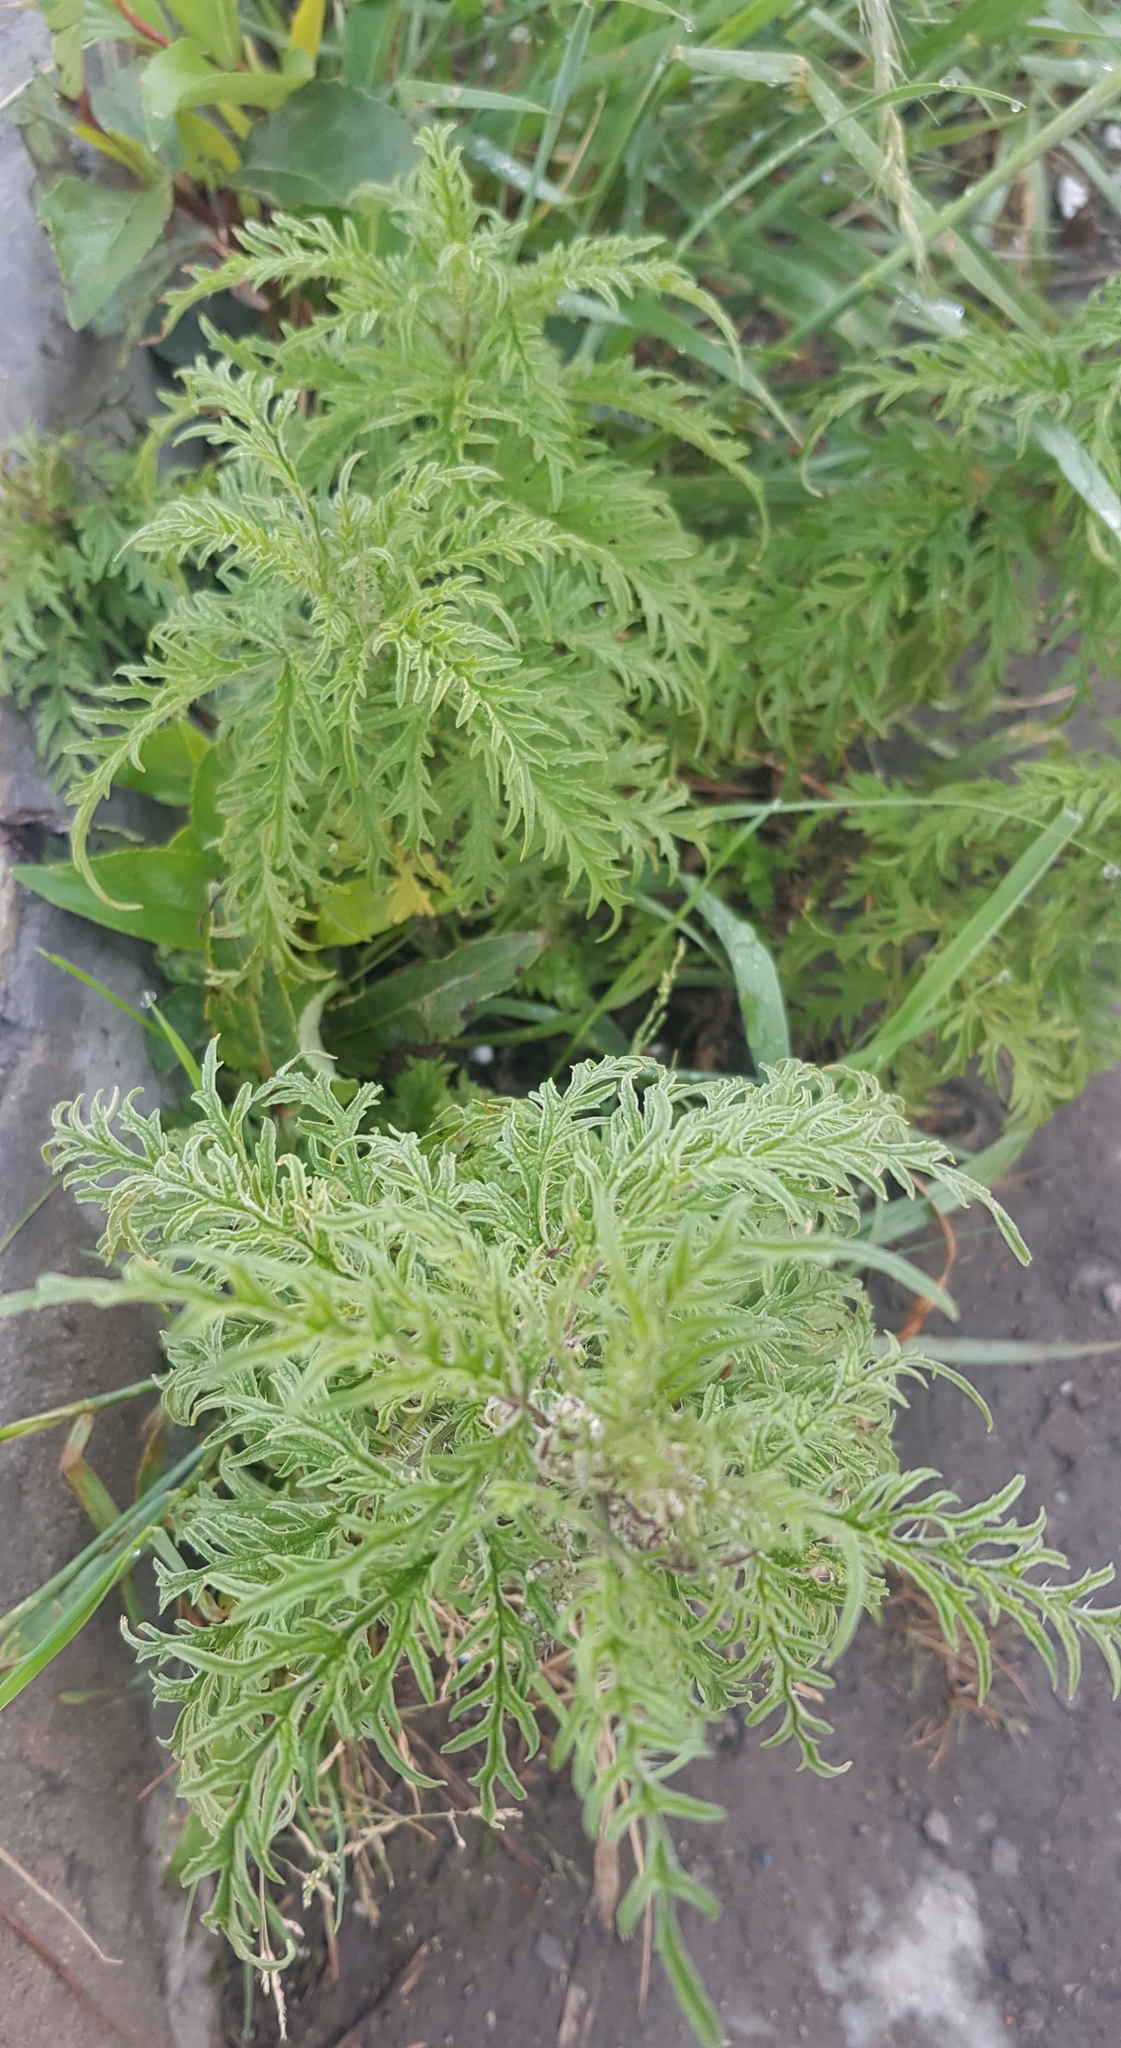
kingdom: Plantae
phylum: Tracheophyta
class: Magnoliopsida
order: Rosales
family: Urticaceae
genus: Urtica
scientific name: Urtica cannabina
